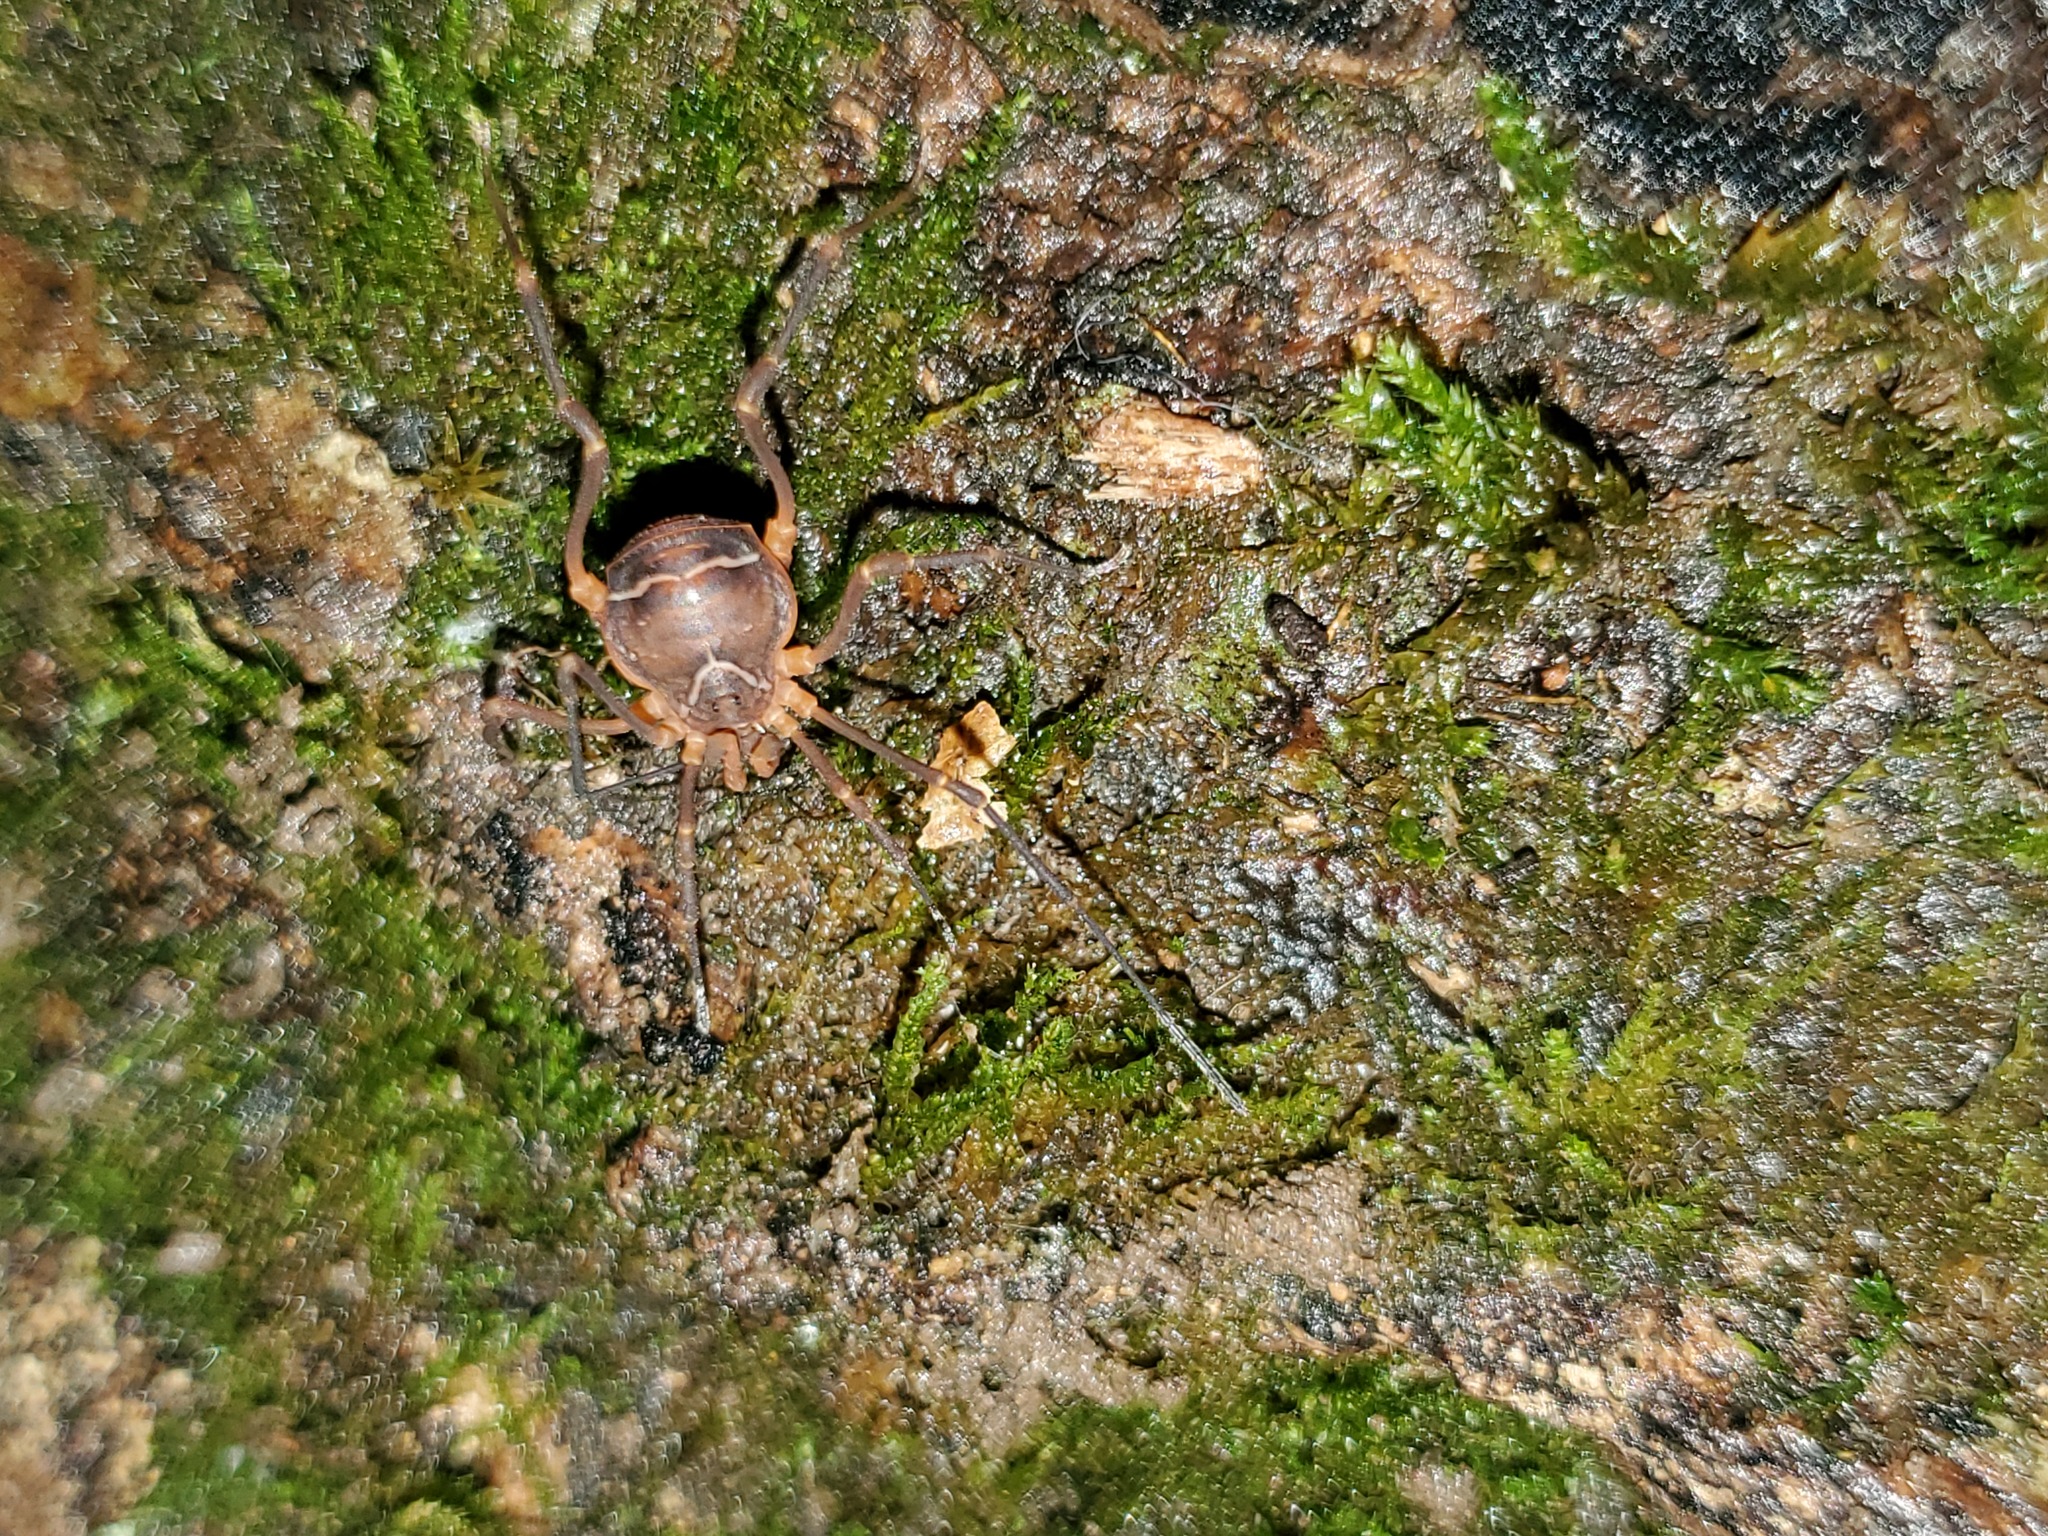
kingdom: Animalia
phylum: Arthropoda
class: Arachnida
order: Opiliones
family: Cosmetidae
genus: Libitioides
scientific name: Libitioides sayi
